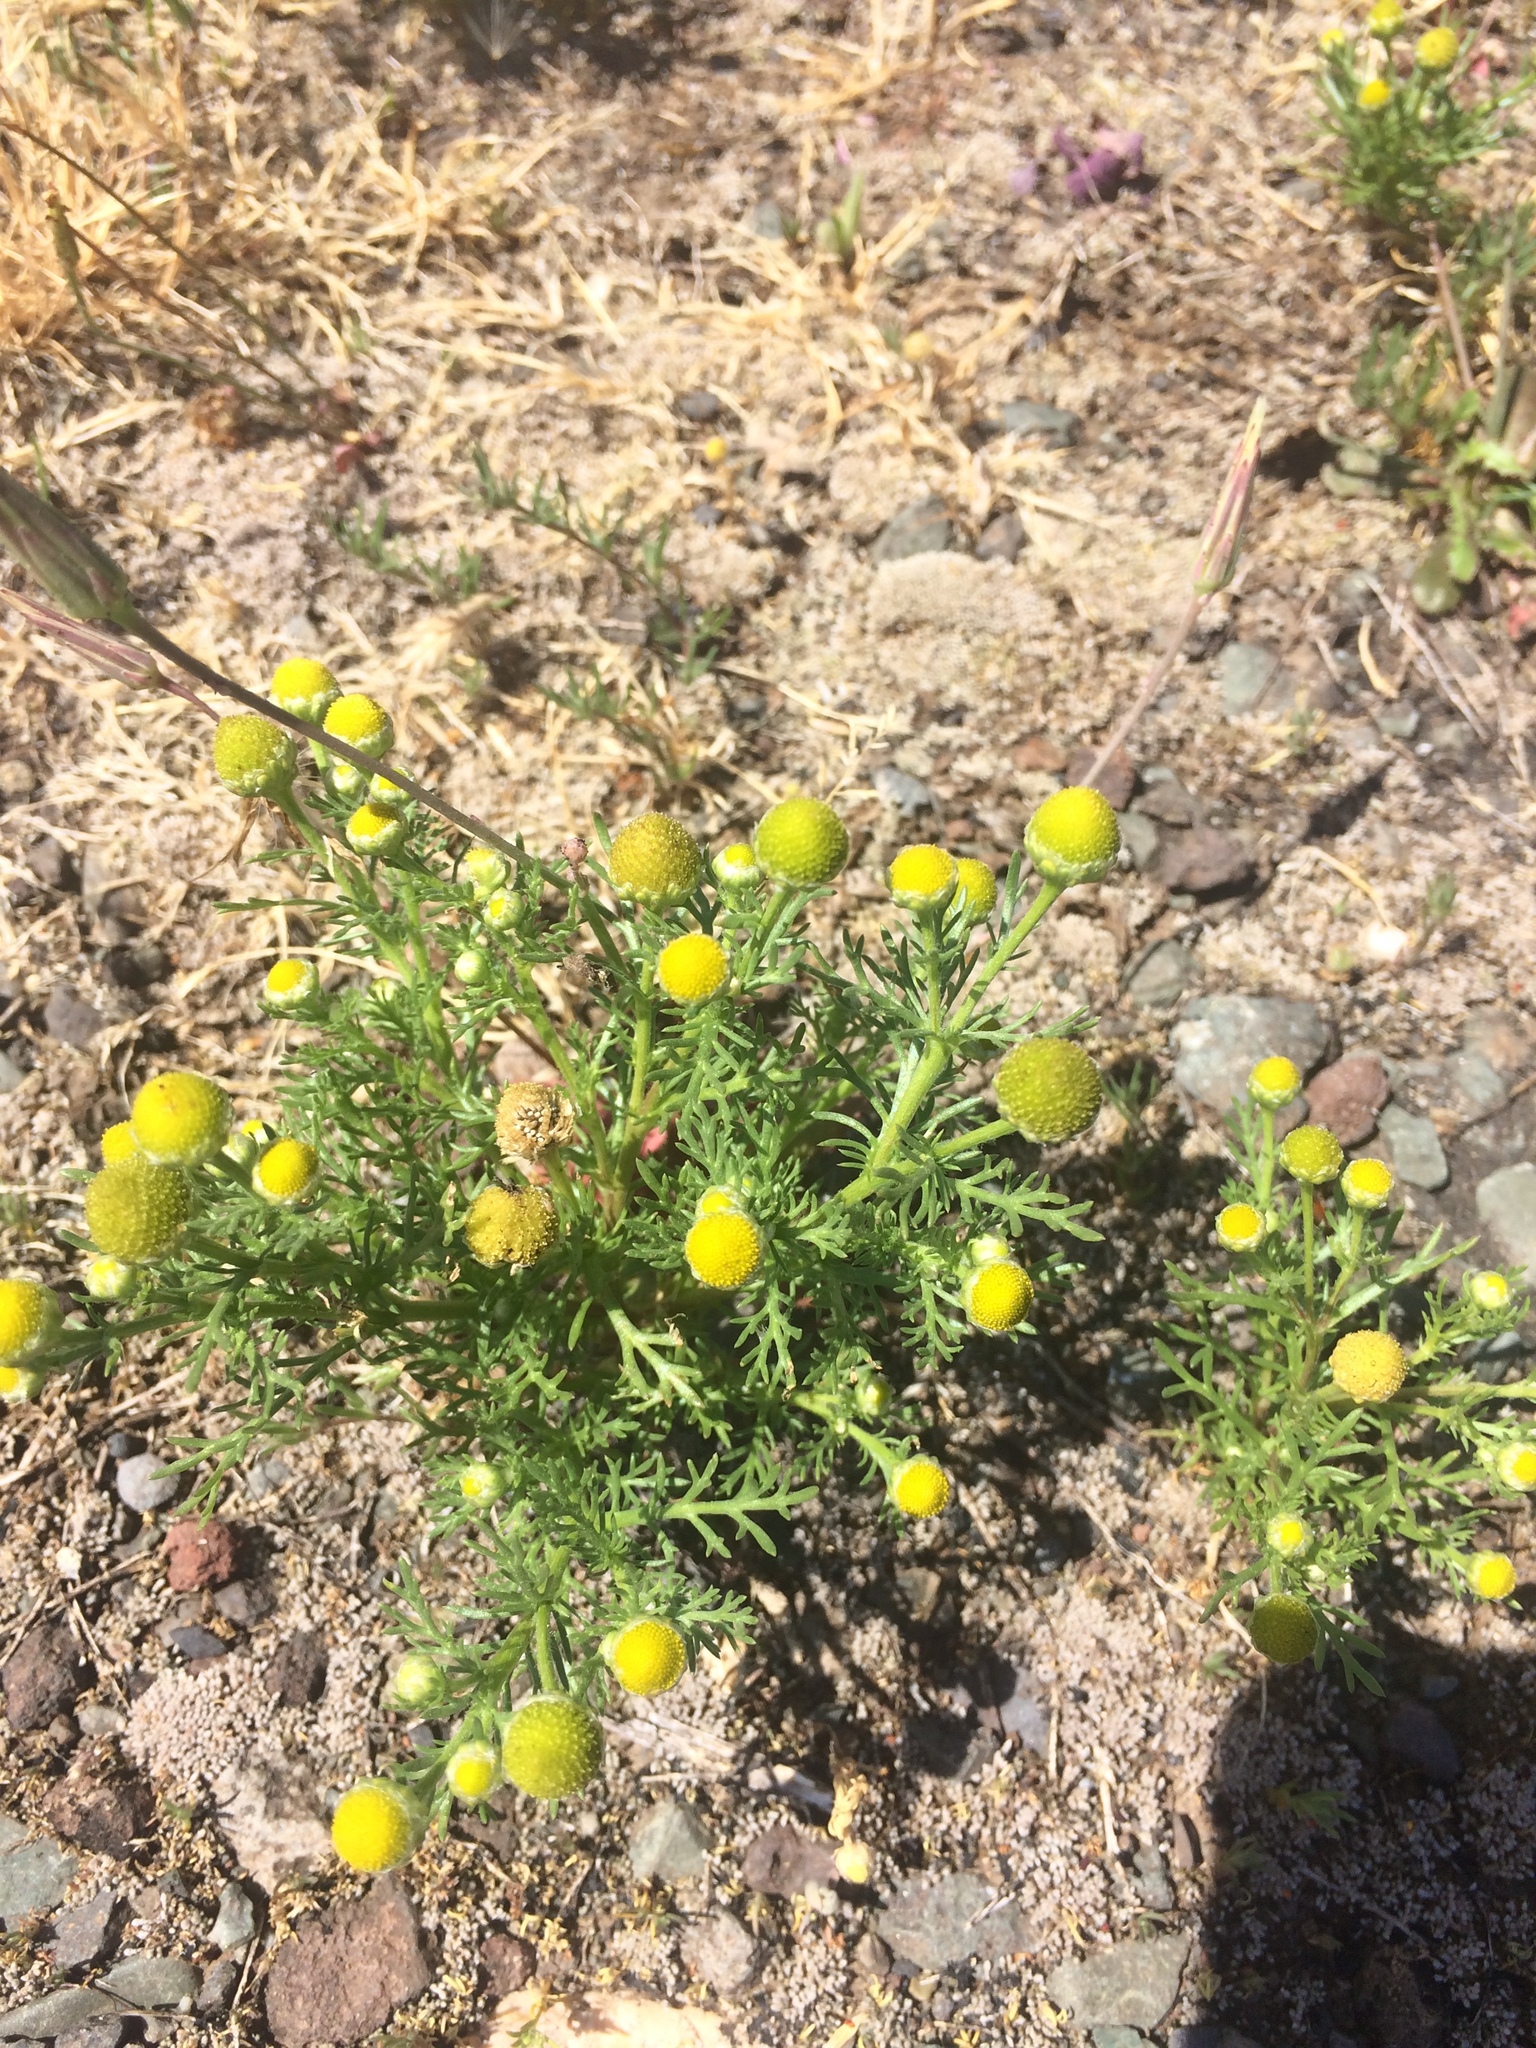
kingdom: Plantae
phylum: Tracheophyta
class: Magnoliopsida
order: Asterales
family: Asteraceae
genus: Matricaria
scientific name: Matricaria discoidea
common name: Disc mayweed
